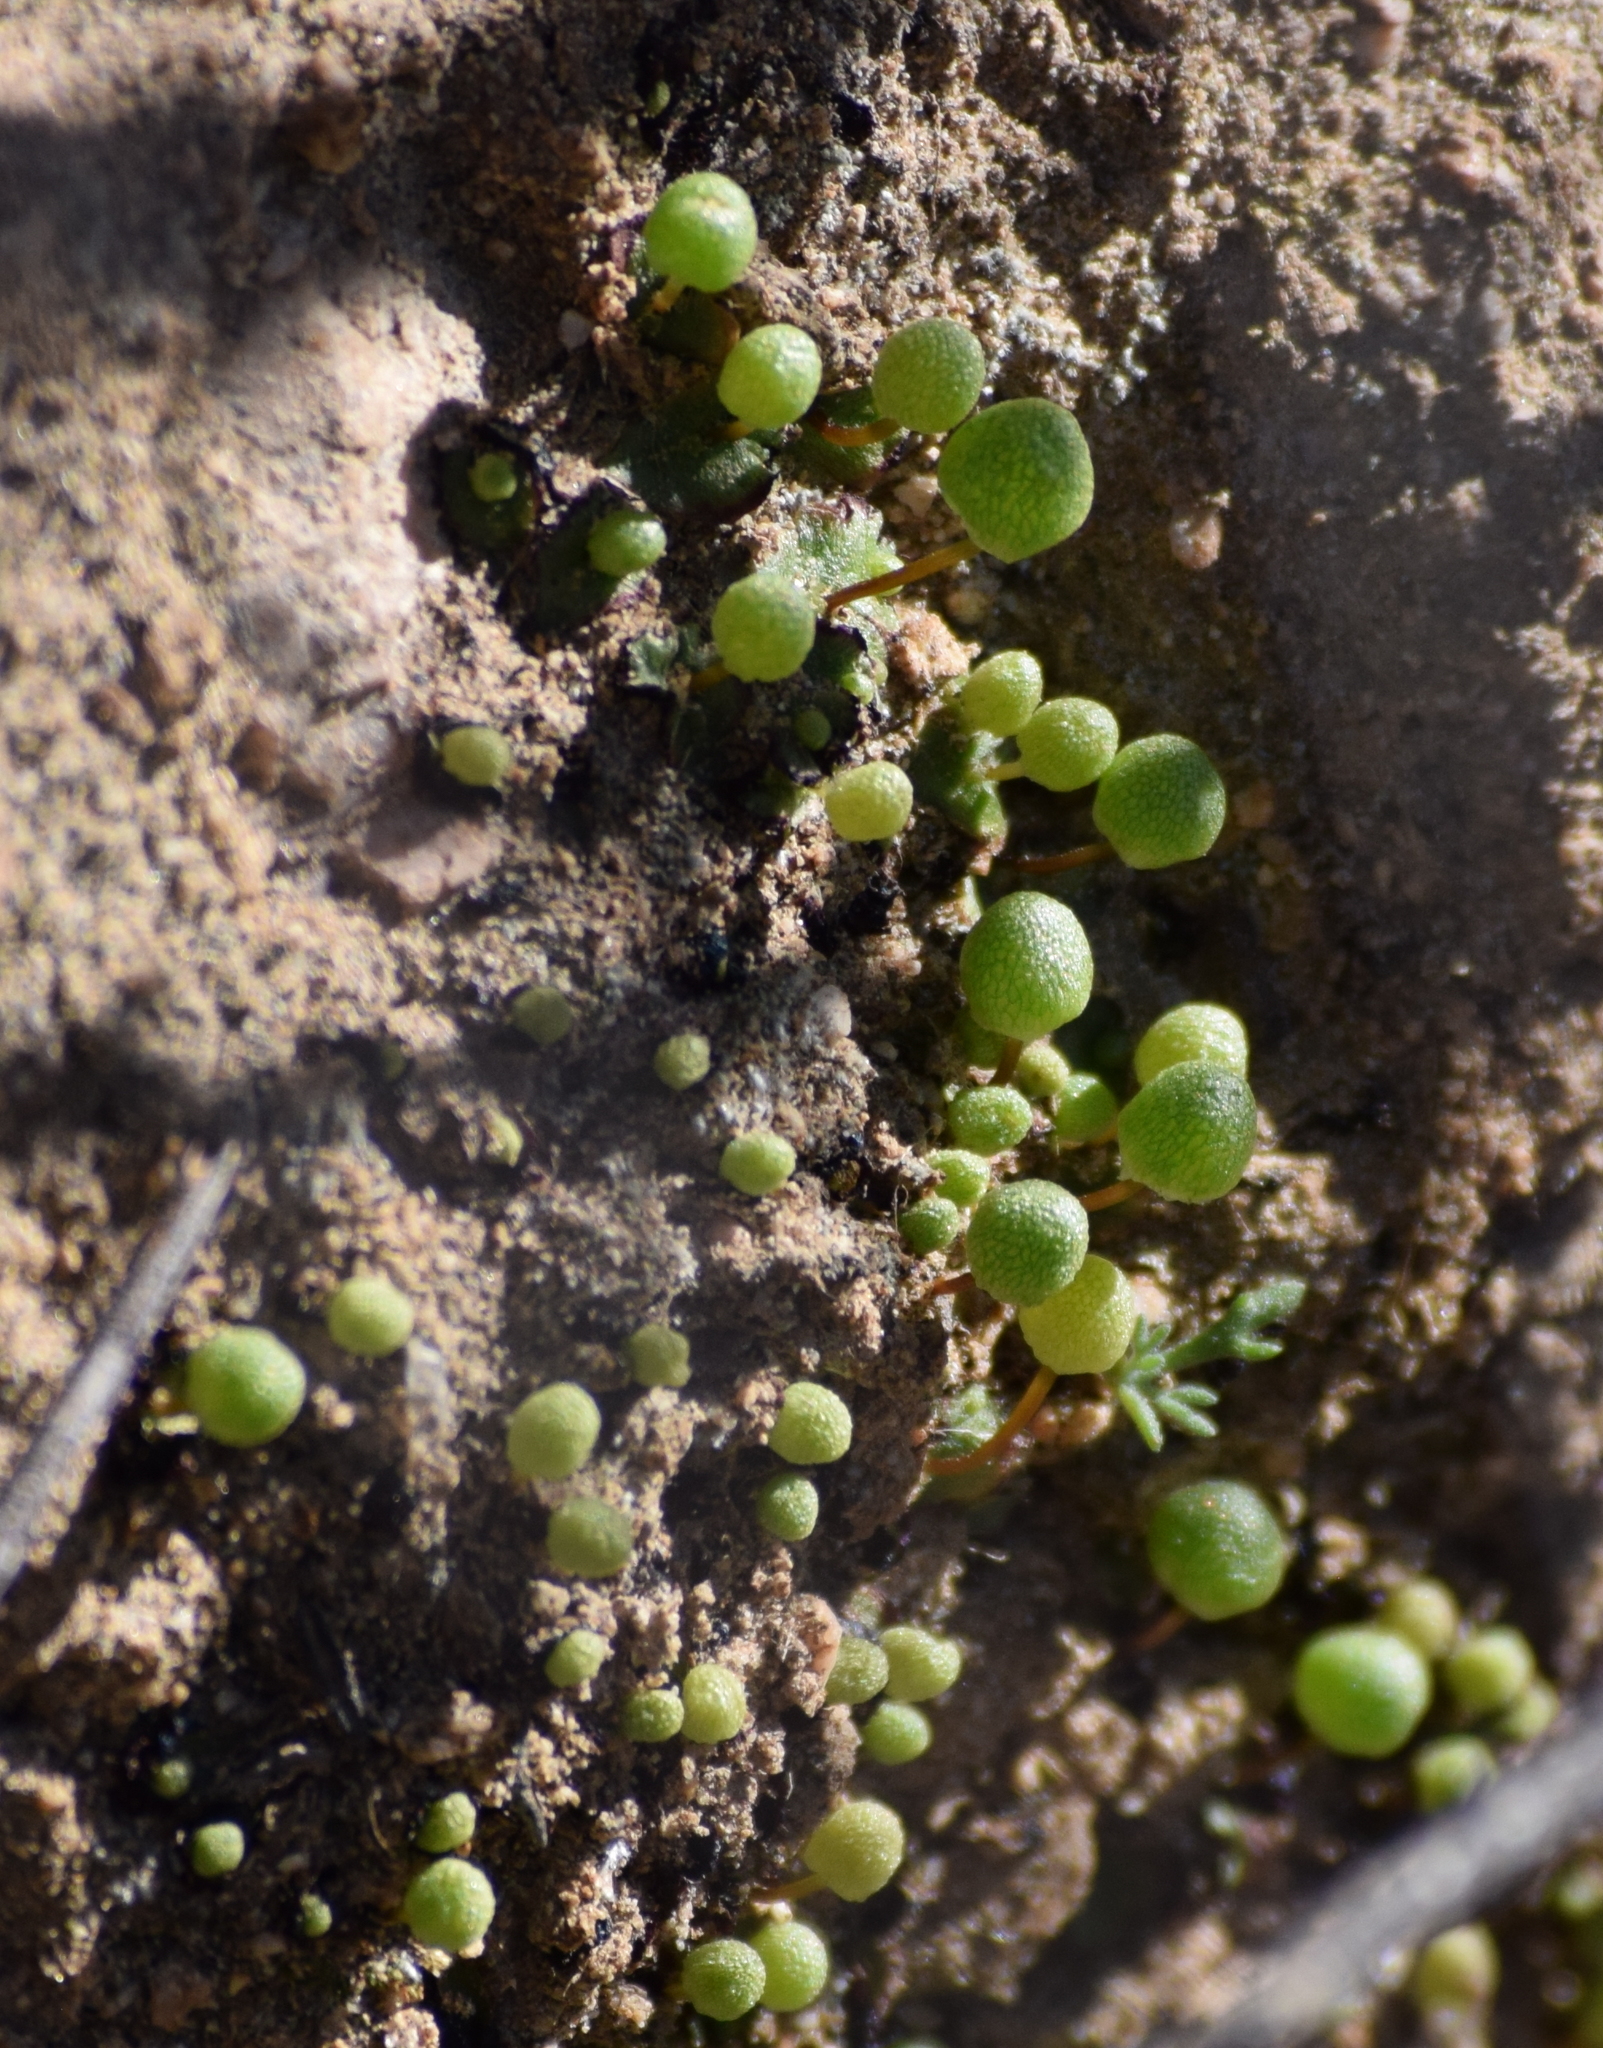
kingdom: Plantae
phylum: Marchantiophyta
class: Marchantiopsida
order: Marchantiales
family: Aytoniaceae
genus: Asterella
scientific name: Asterella palmeri
